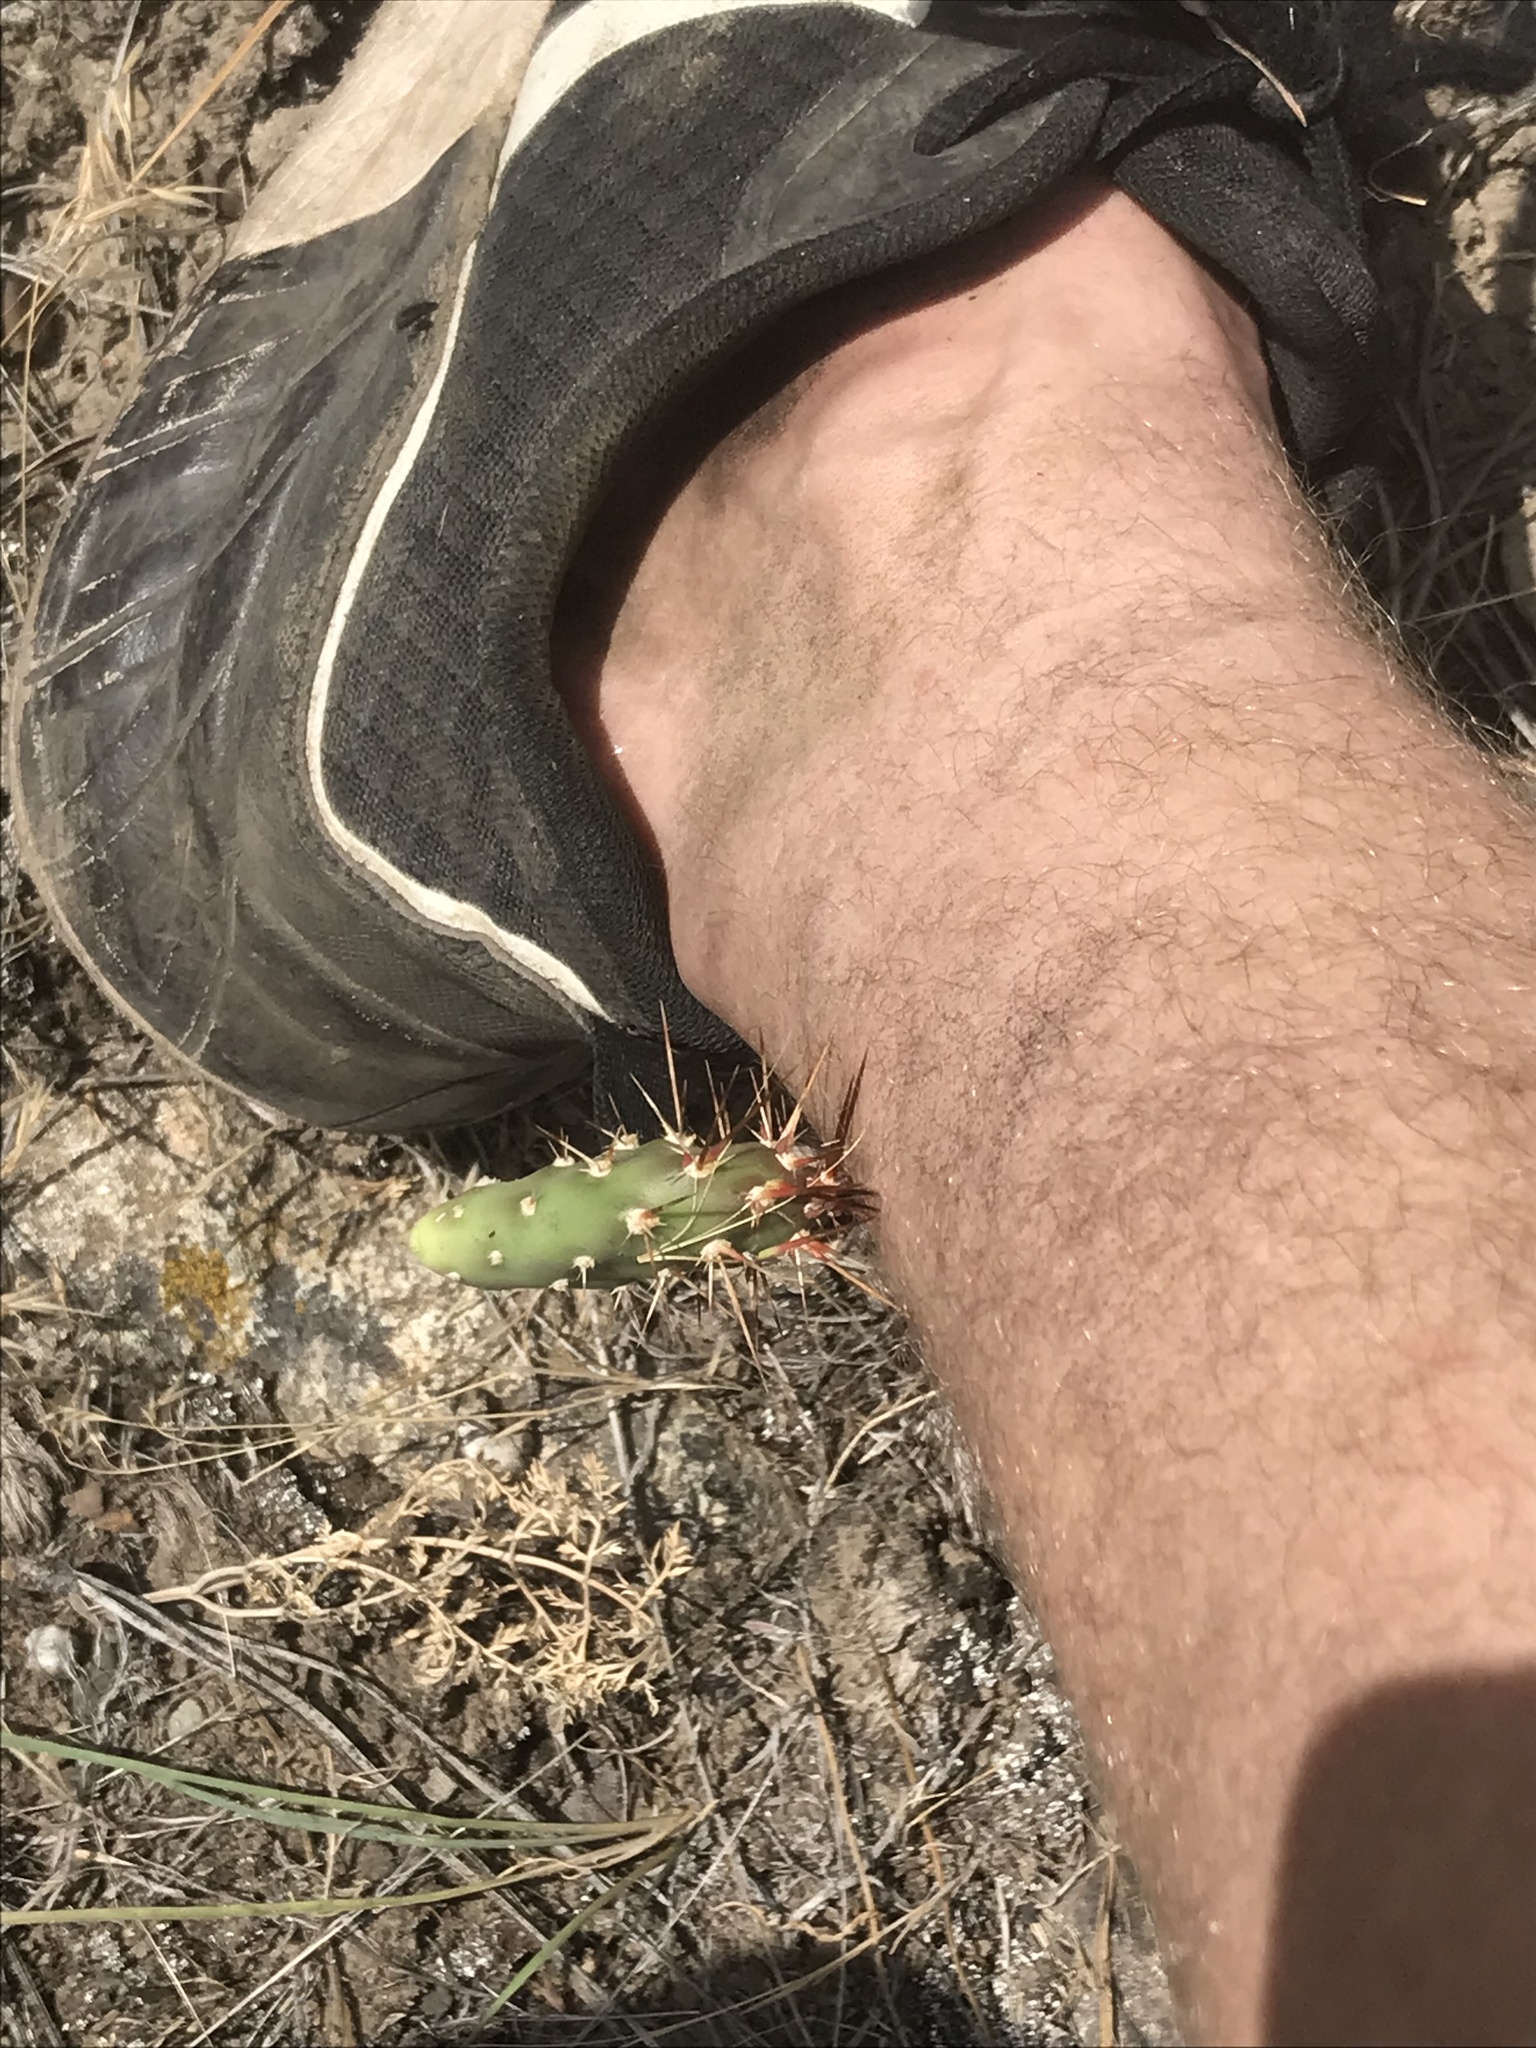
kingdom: Plantae
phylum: Tracheophyta
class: Magnoliopsida
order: Caryophyllales
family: Cactaceae
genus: Opuntia
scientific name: Opuntia fragilis
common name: Brittle cactus
